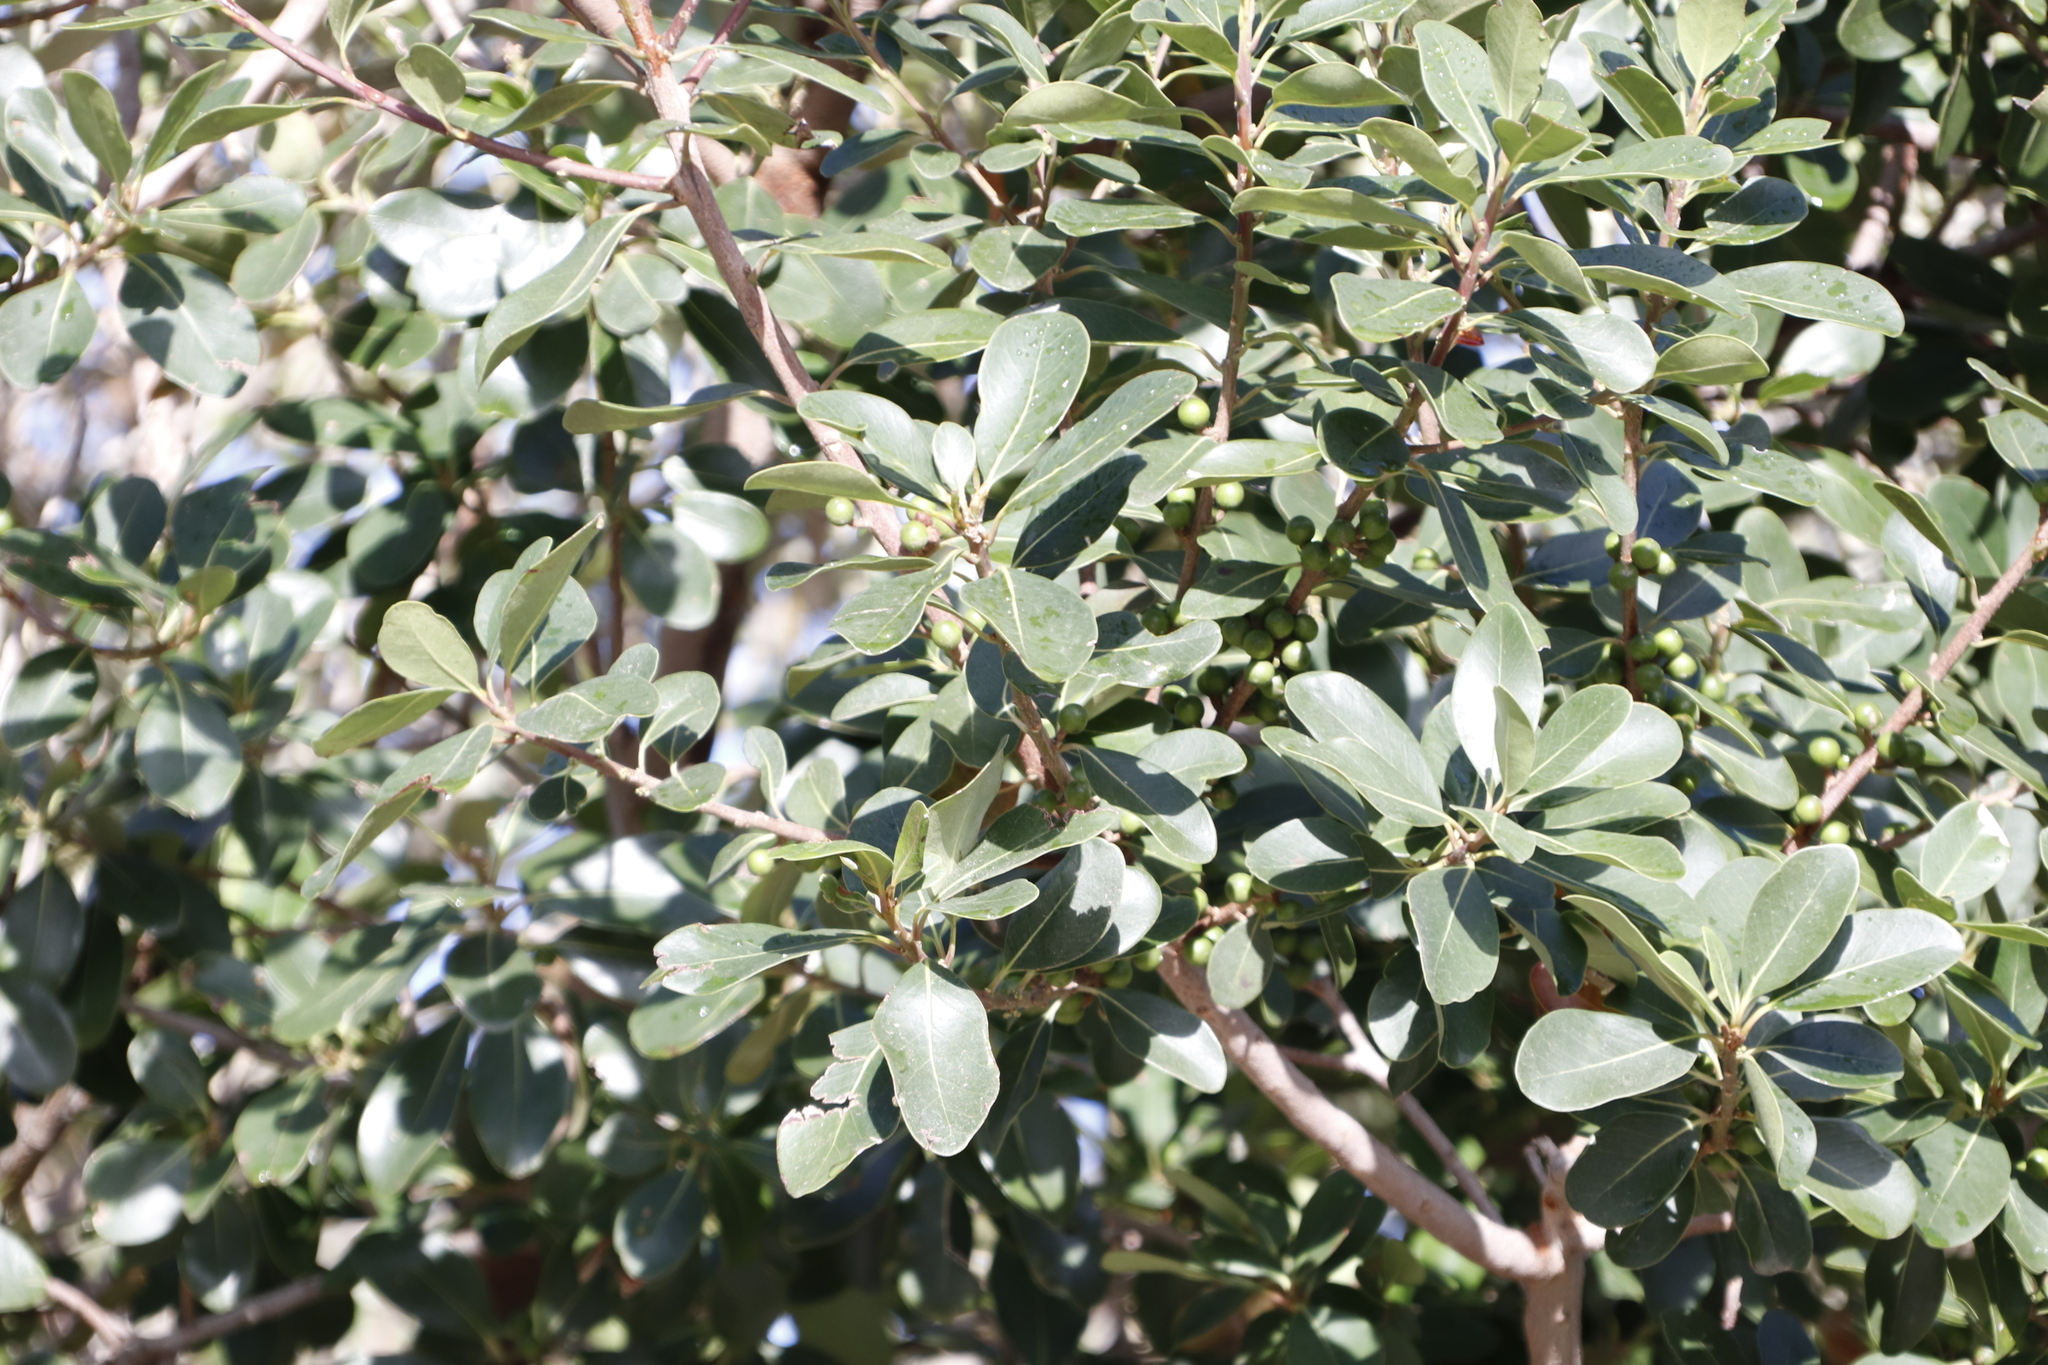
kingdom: Plantae
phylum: Tracheophyta
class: Magnoliopsida
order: Ericales
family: Sapotaceae
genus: Sideroxylon
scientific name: Sideroxylon inerme
